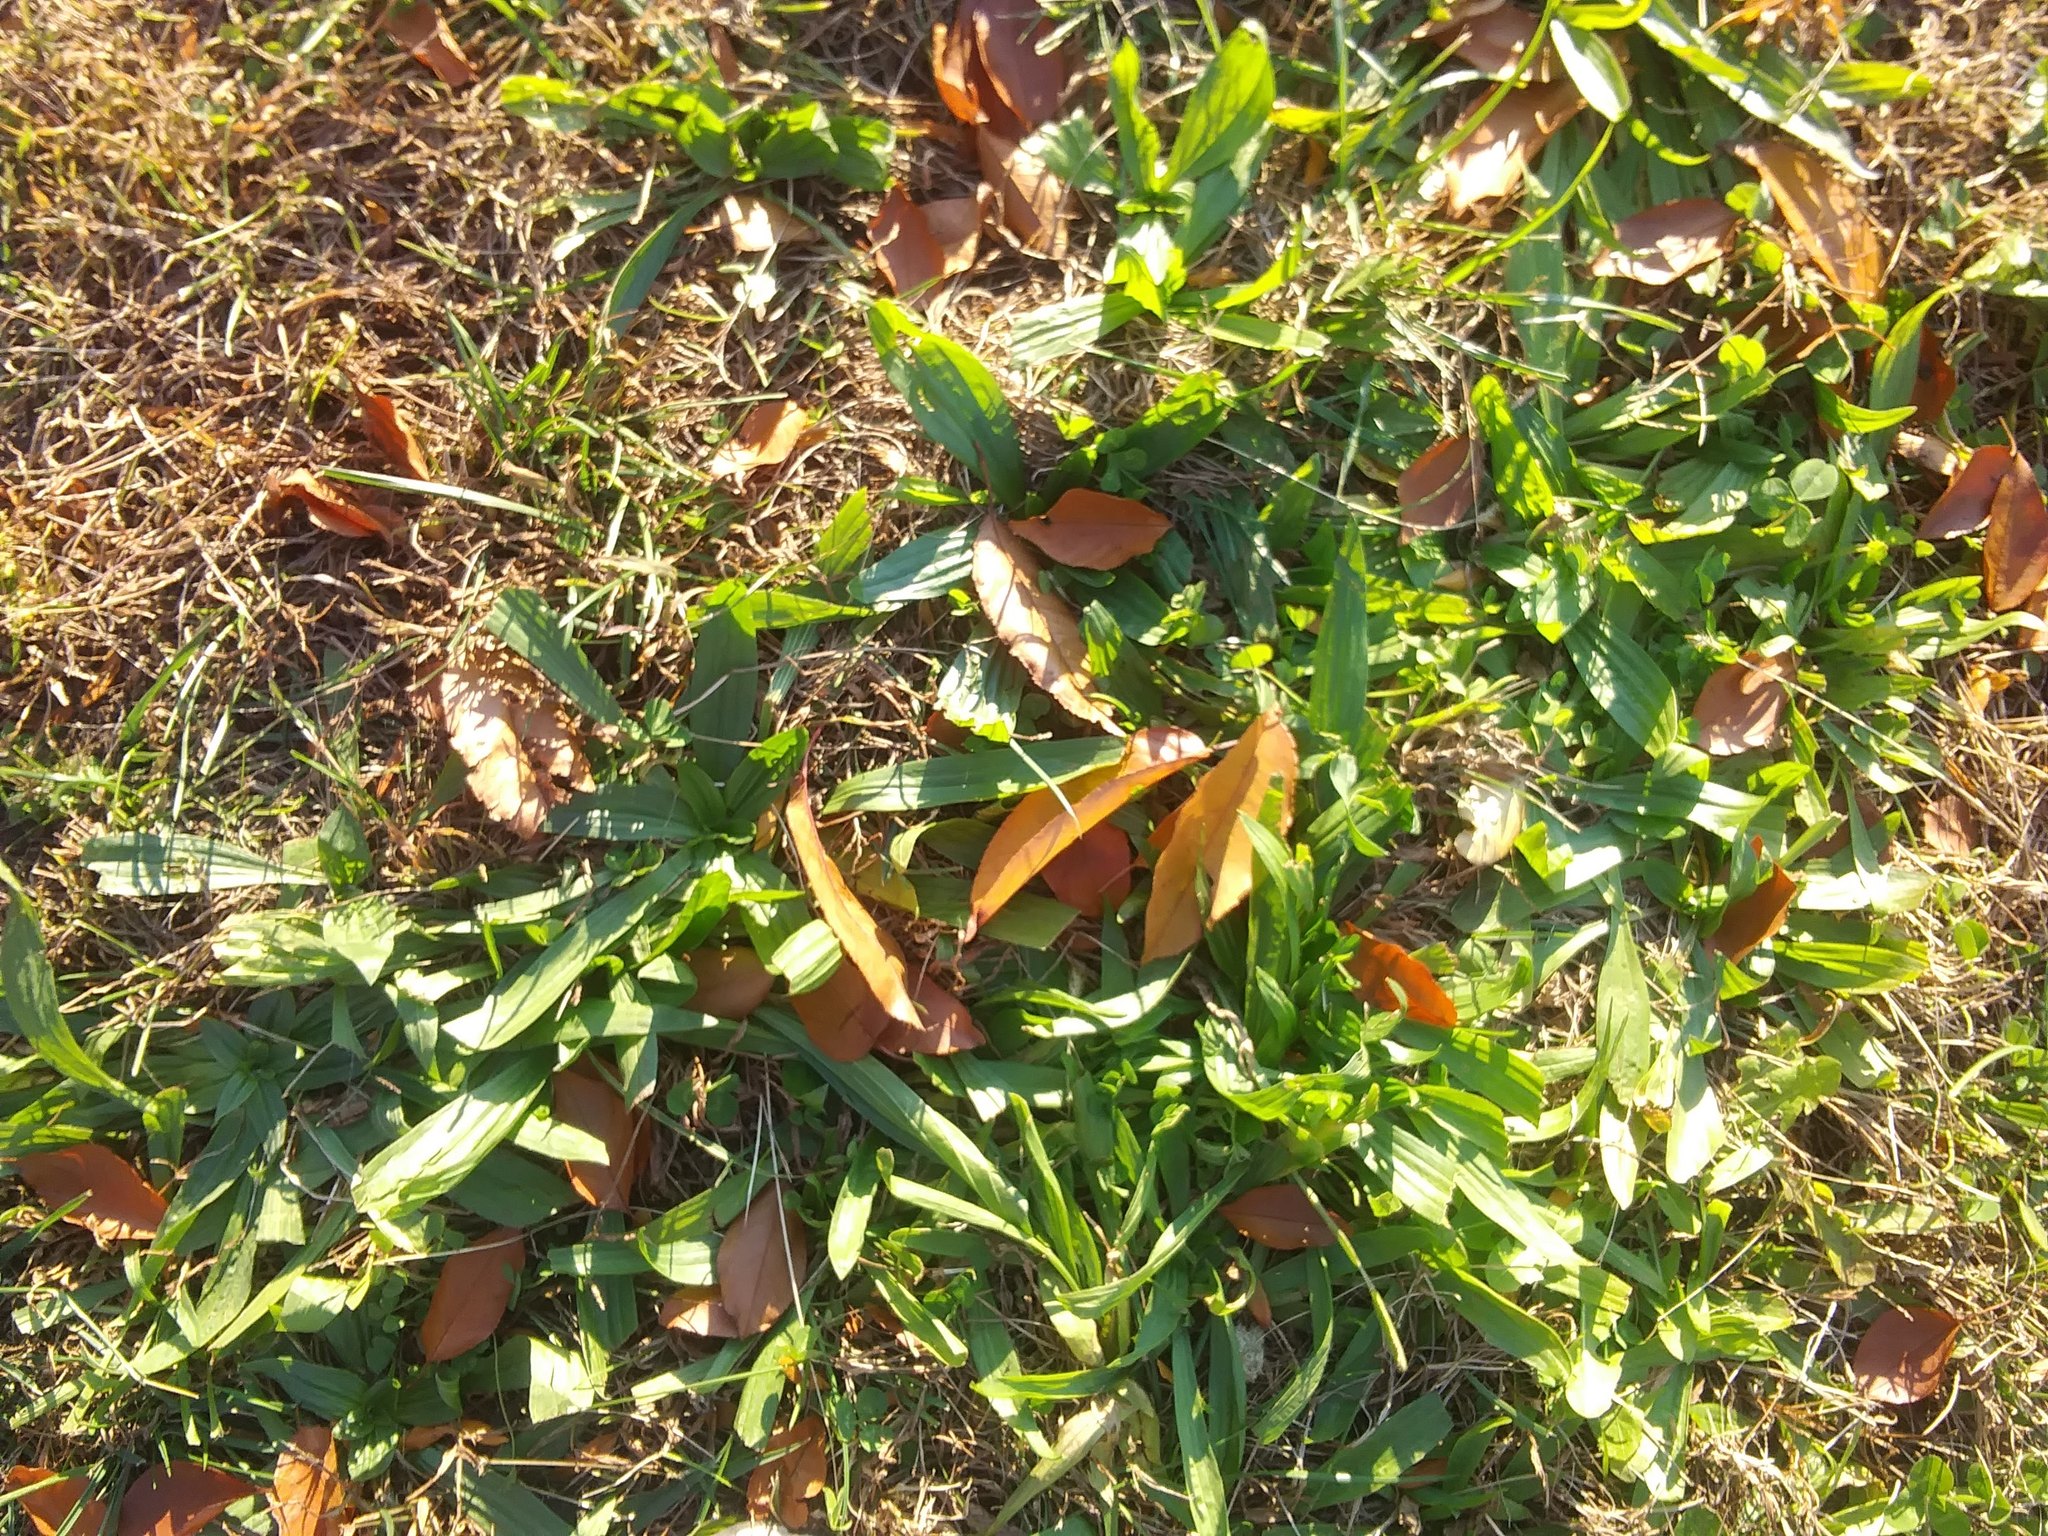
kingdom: Plantae
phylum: Tracheophyta
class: Magnoliopsida
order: Lamiales
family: Plantaginaceae
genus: Plantago
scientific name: Plantago lanceolata
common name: Ribwort plantain
